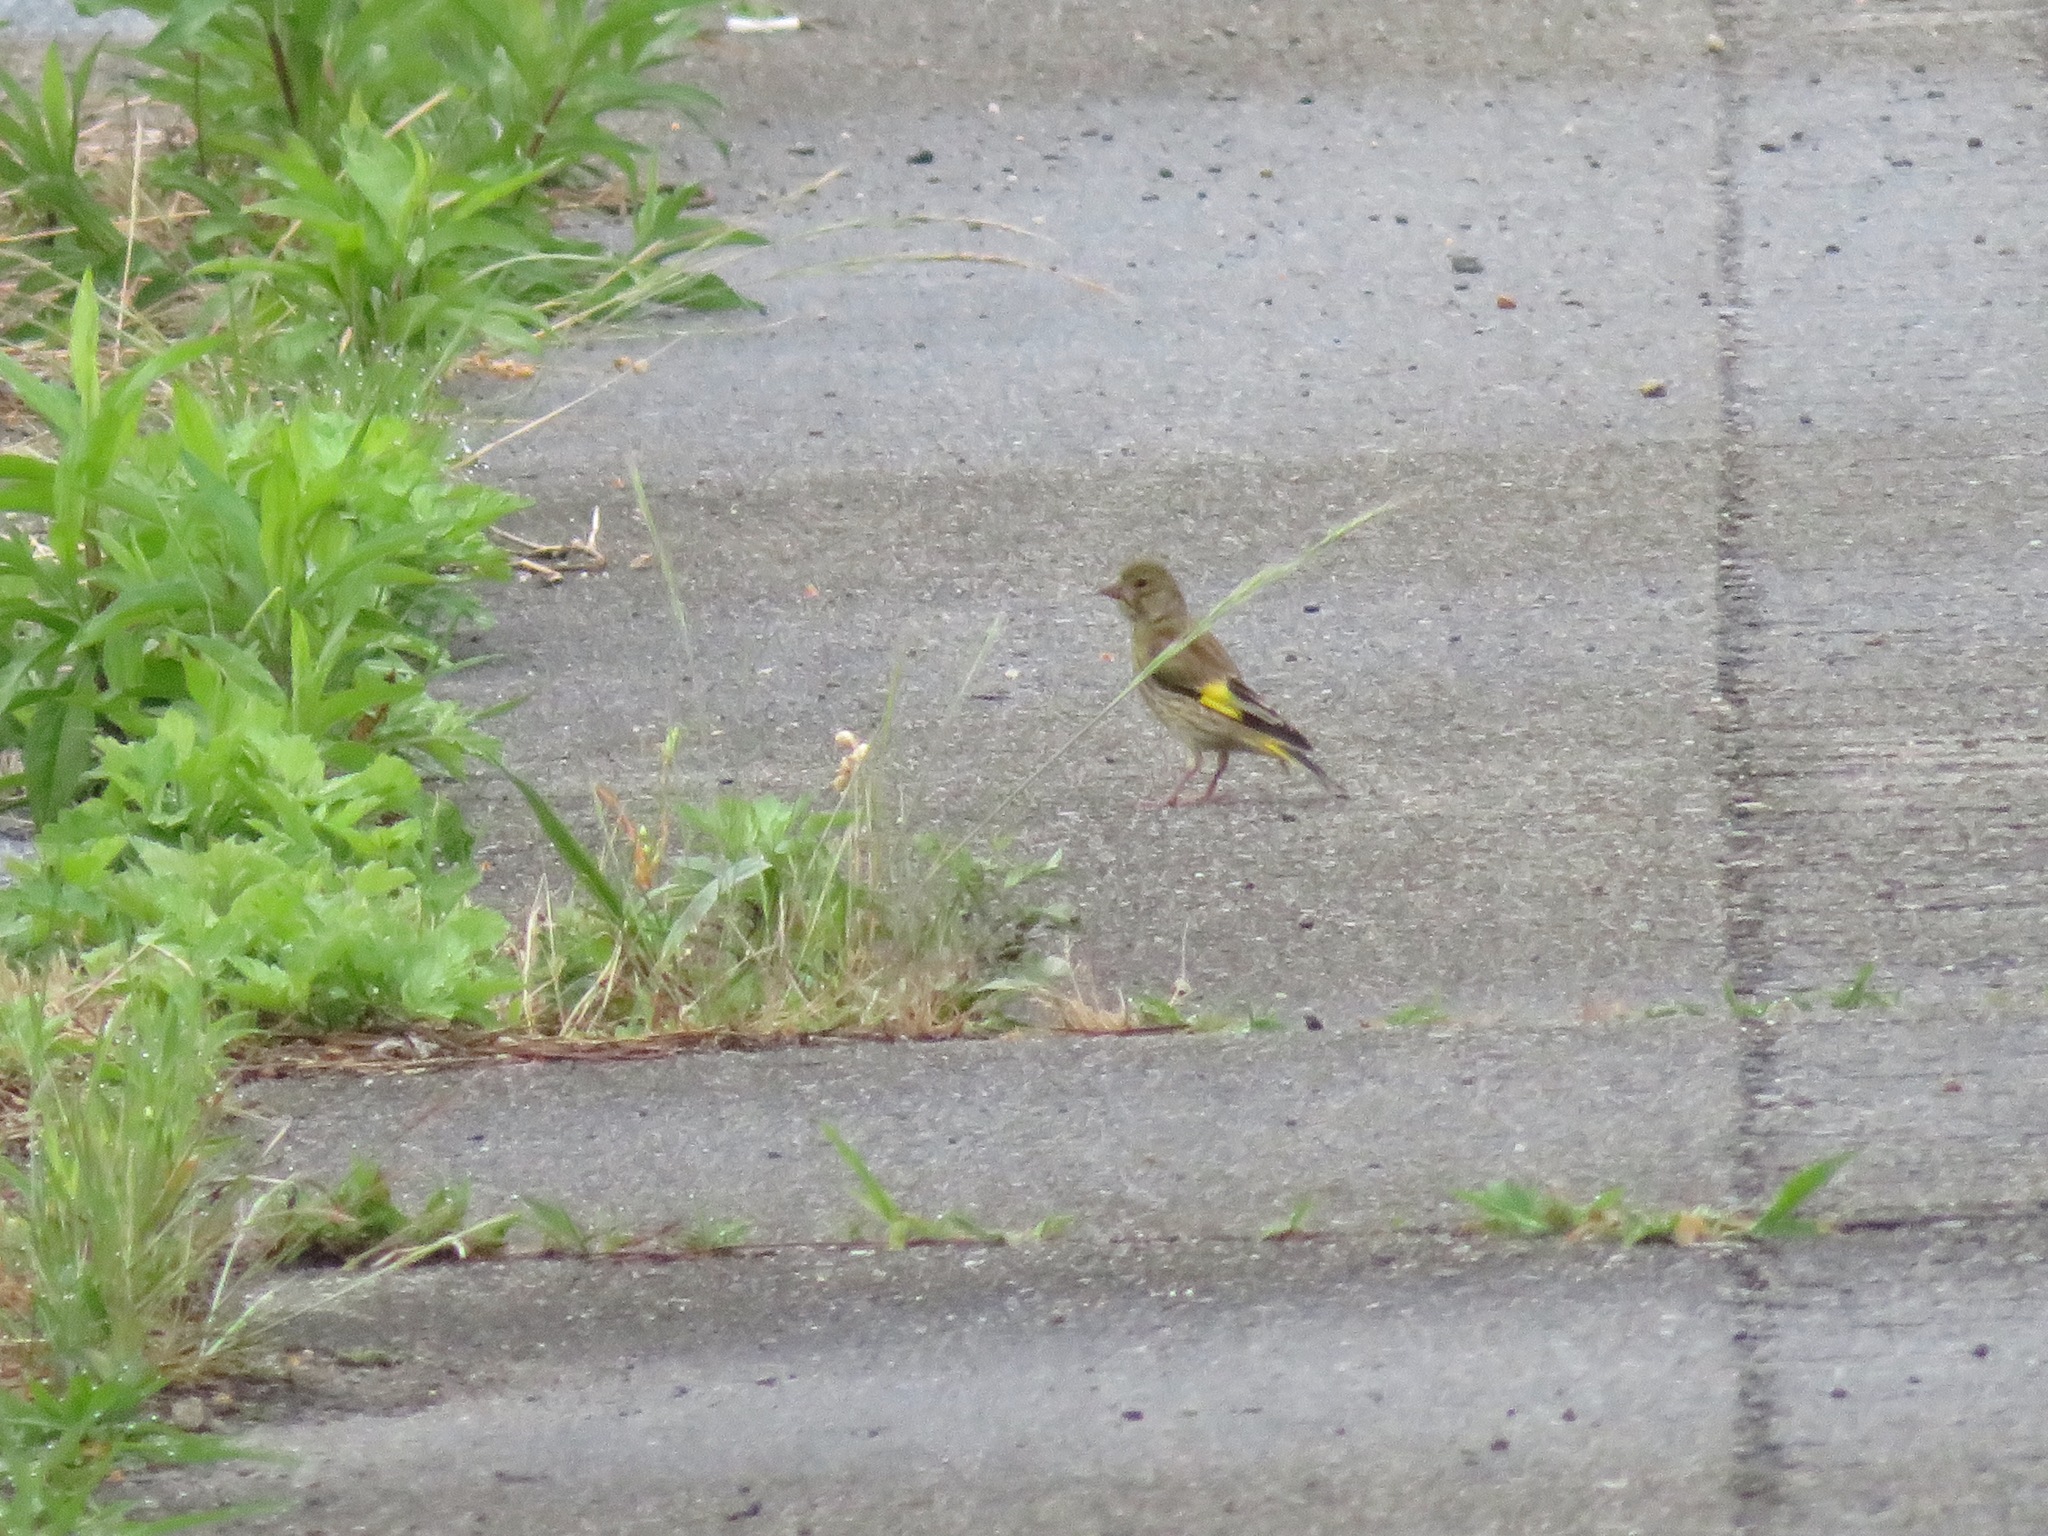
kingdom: Plantae
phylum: Tracheophyta
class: Liliopsida
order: Poales
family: Poaceae
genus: Chloris
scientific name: Chloris sinica
